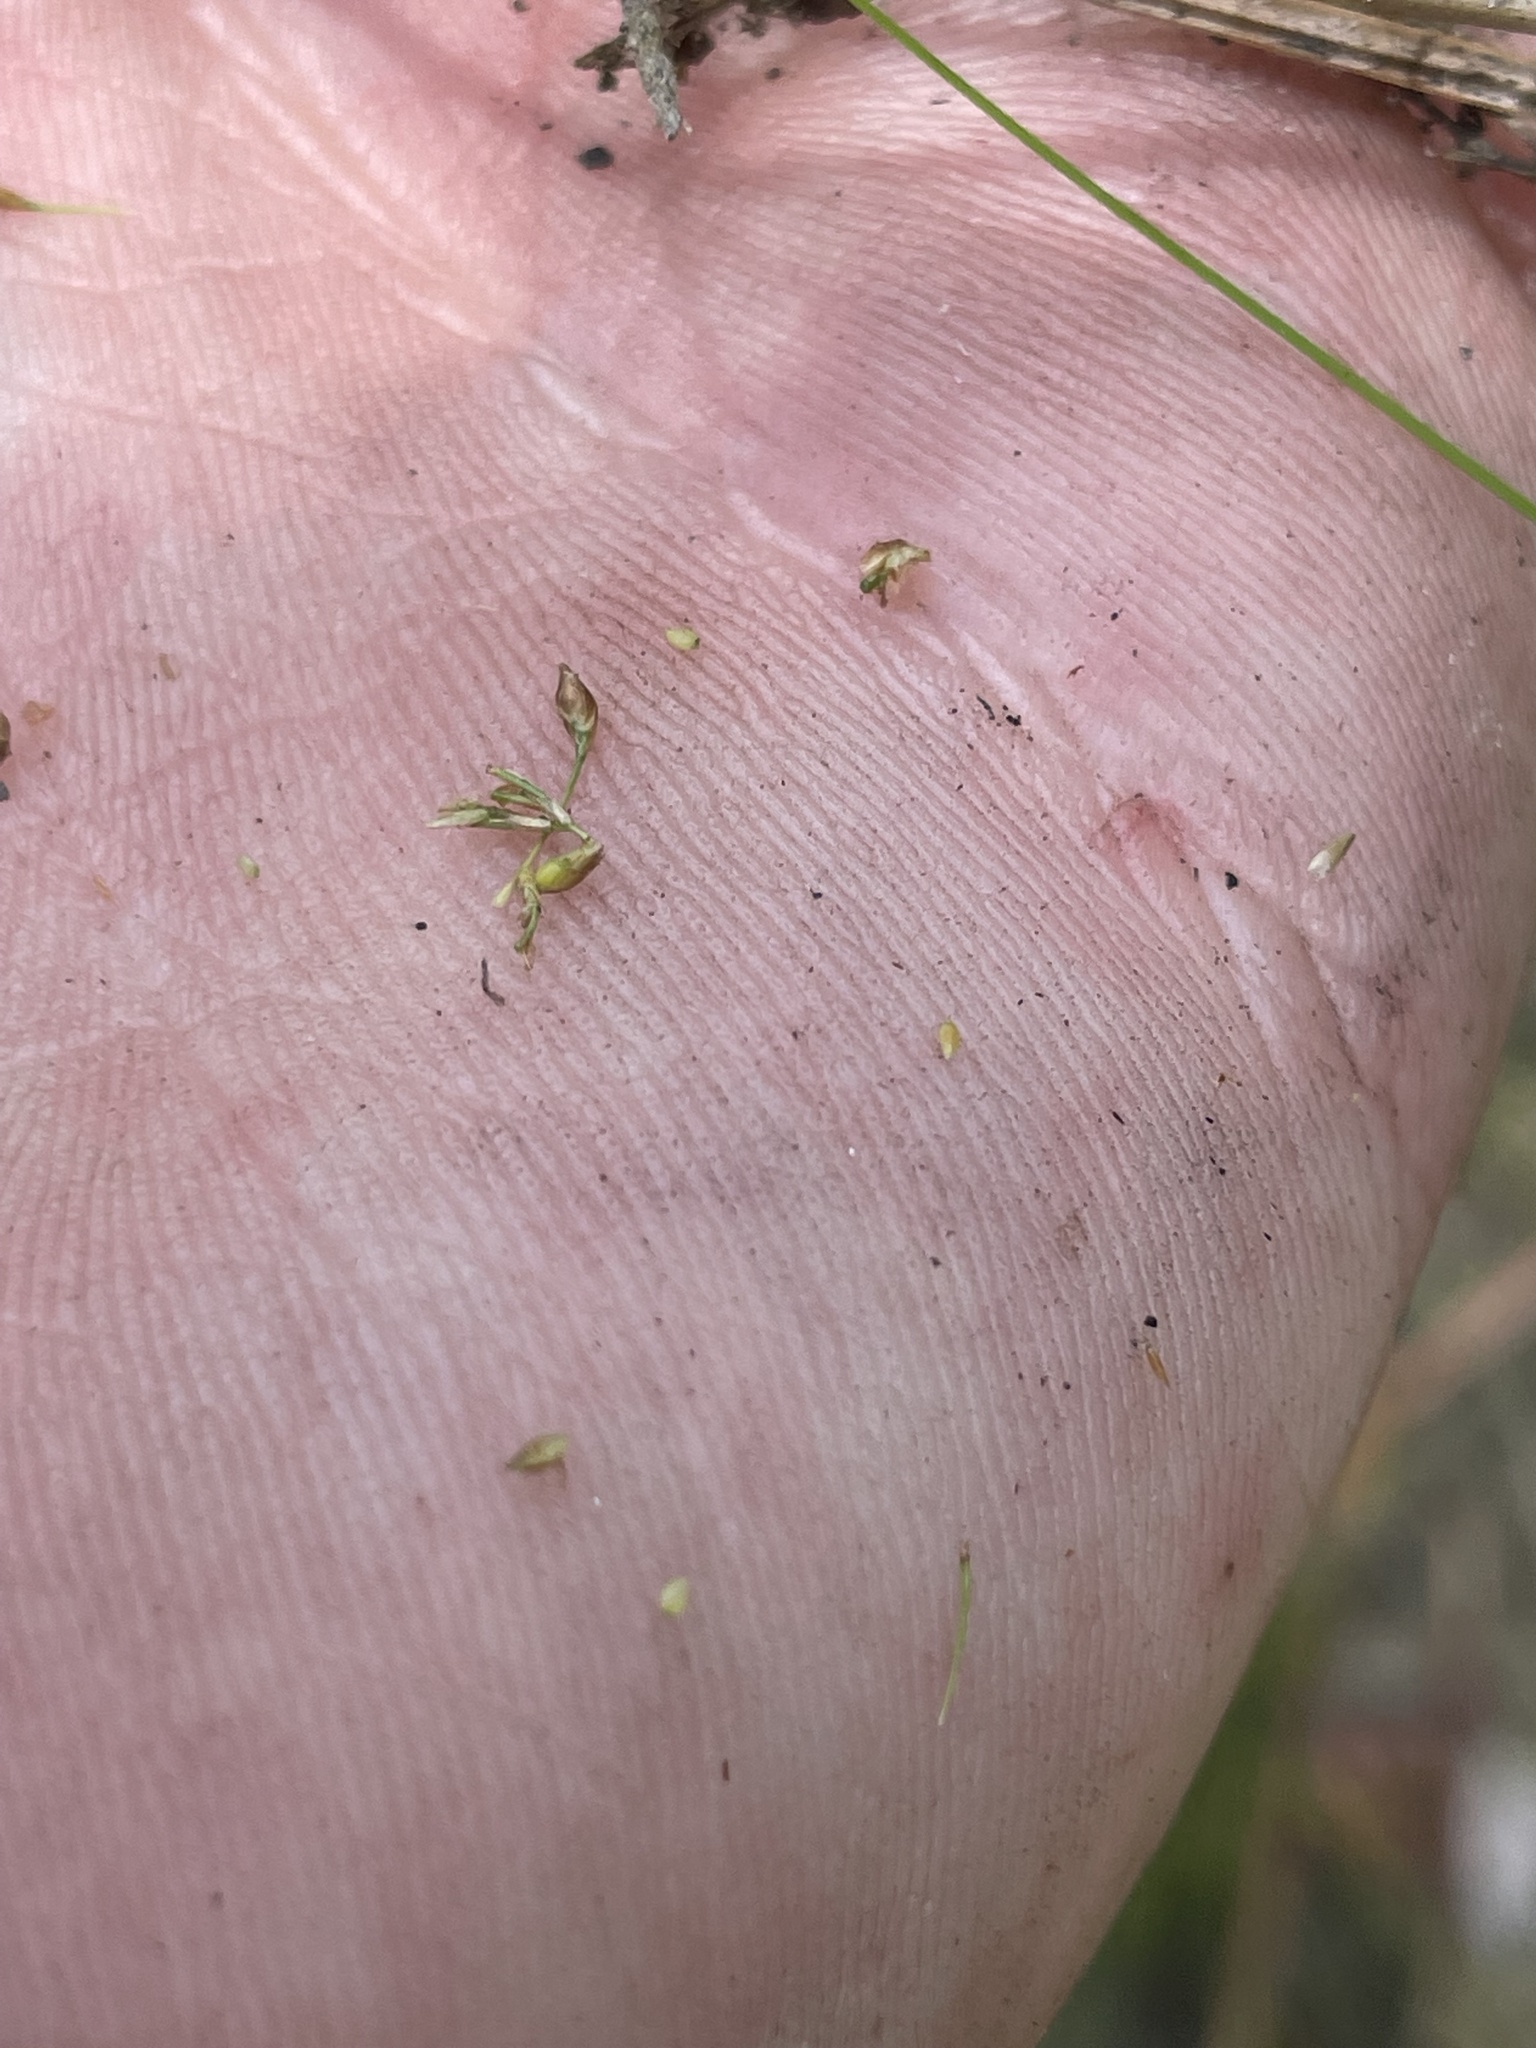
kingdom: Plantae
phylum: Tracheophyta
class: Liliopsida
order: Poales
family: Cyperaceae
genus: Rhynchospora
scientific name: Rhynchospora pusilla
